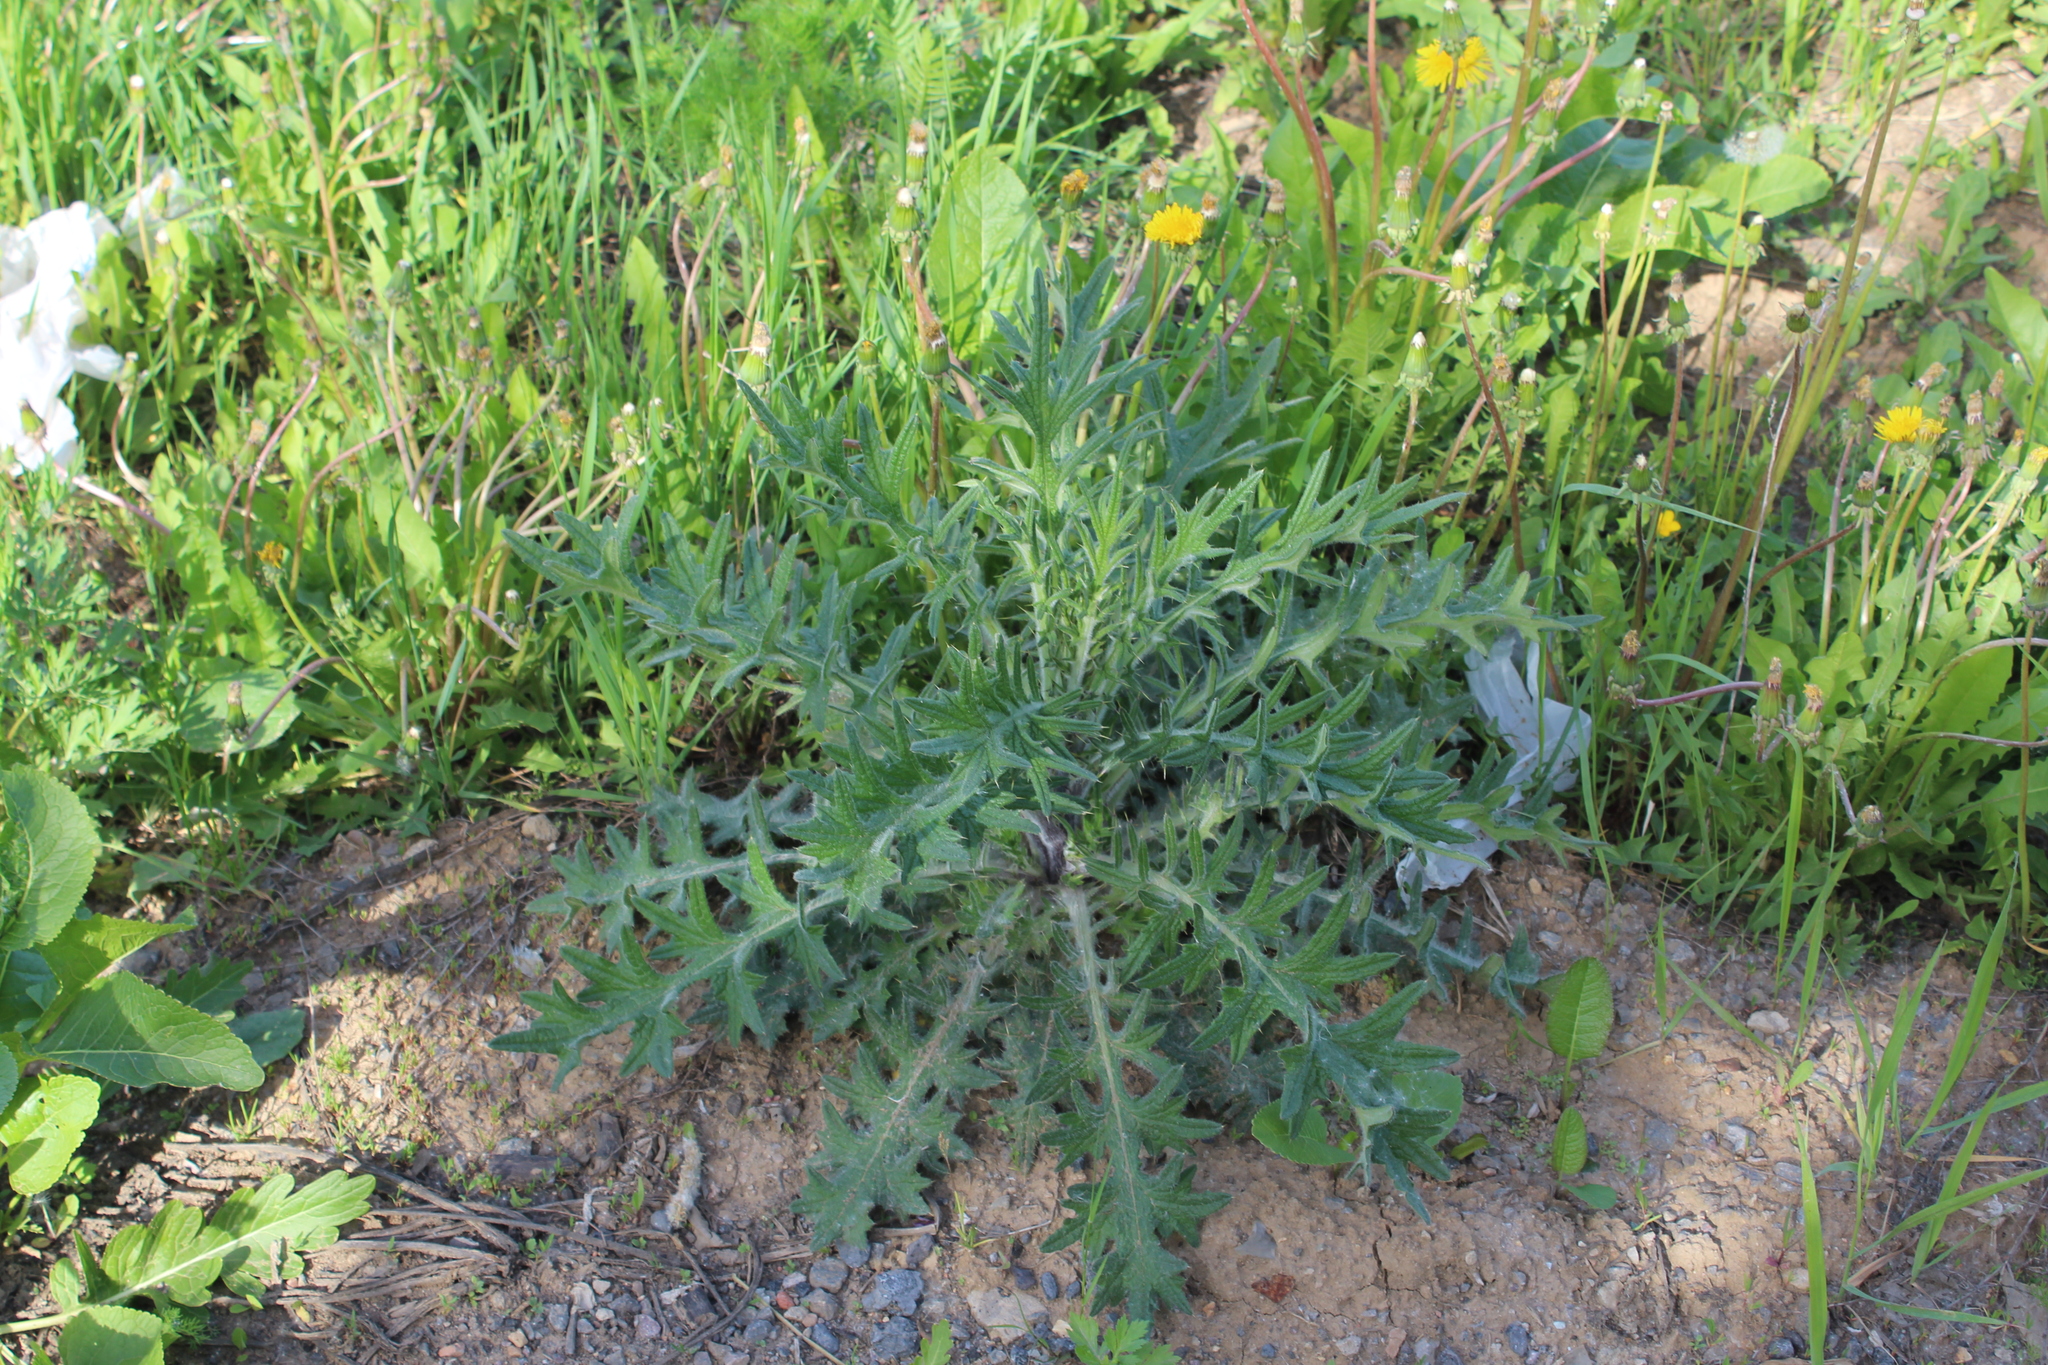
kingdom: Plantae
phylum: Tracheophyta
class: Magnoliopsida
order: Asterales
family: Asteraceae
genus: Cirsium
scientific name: Cirsium vulgare
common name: Bull thistle
